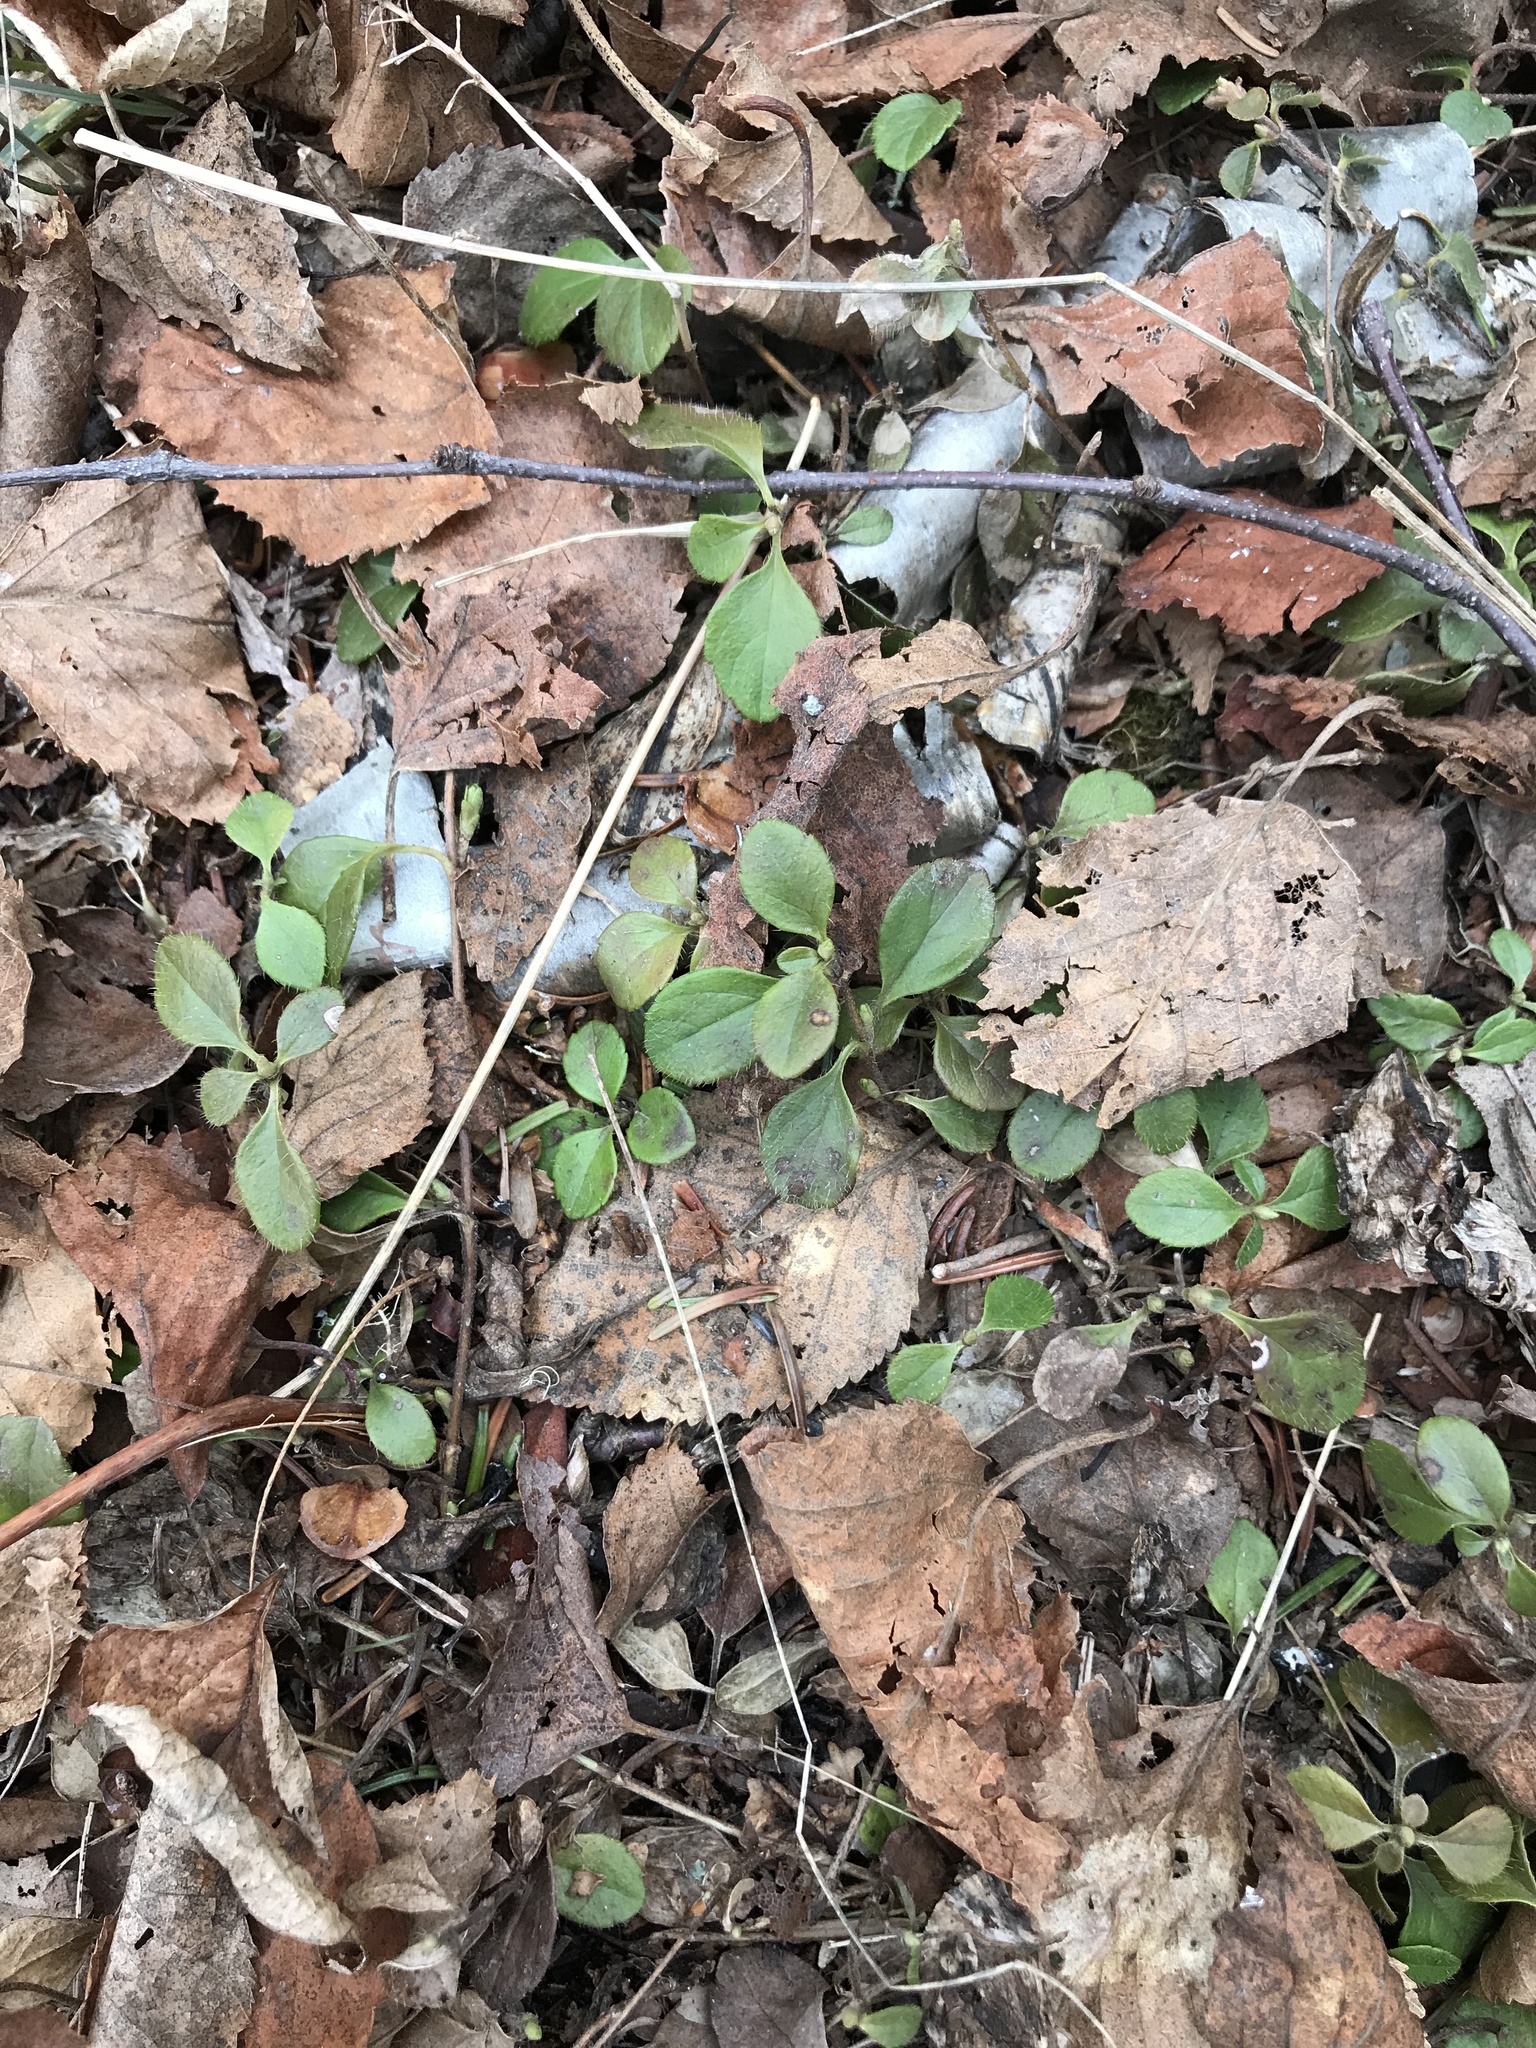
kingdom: Plantae
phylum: Tracheophyta
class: Magnoliopsida
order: Dipsacales
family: Caprifoliaceae
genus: Linnaea
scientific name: Linnaea borealis
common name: Twinflower
